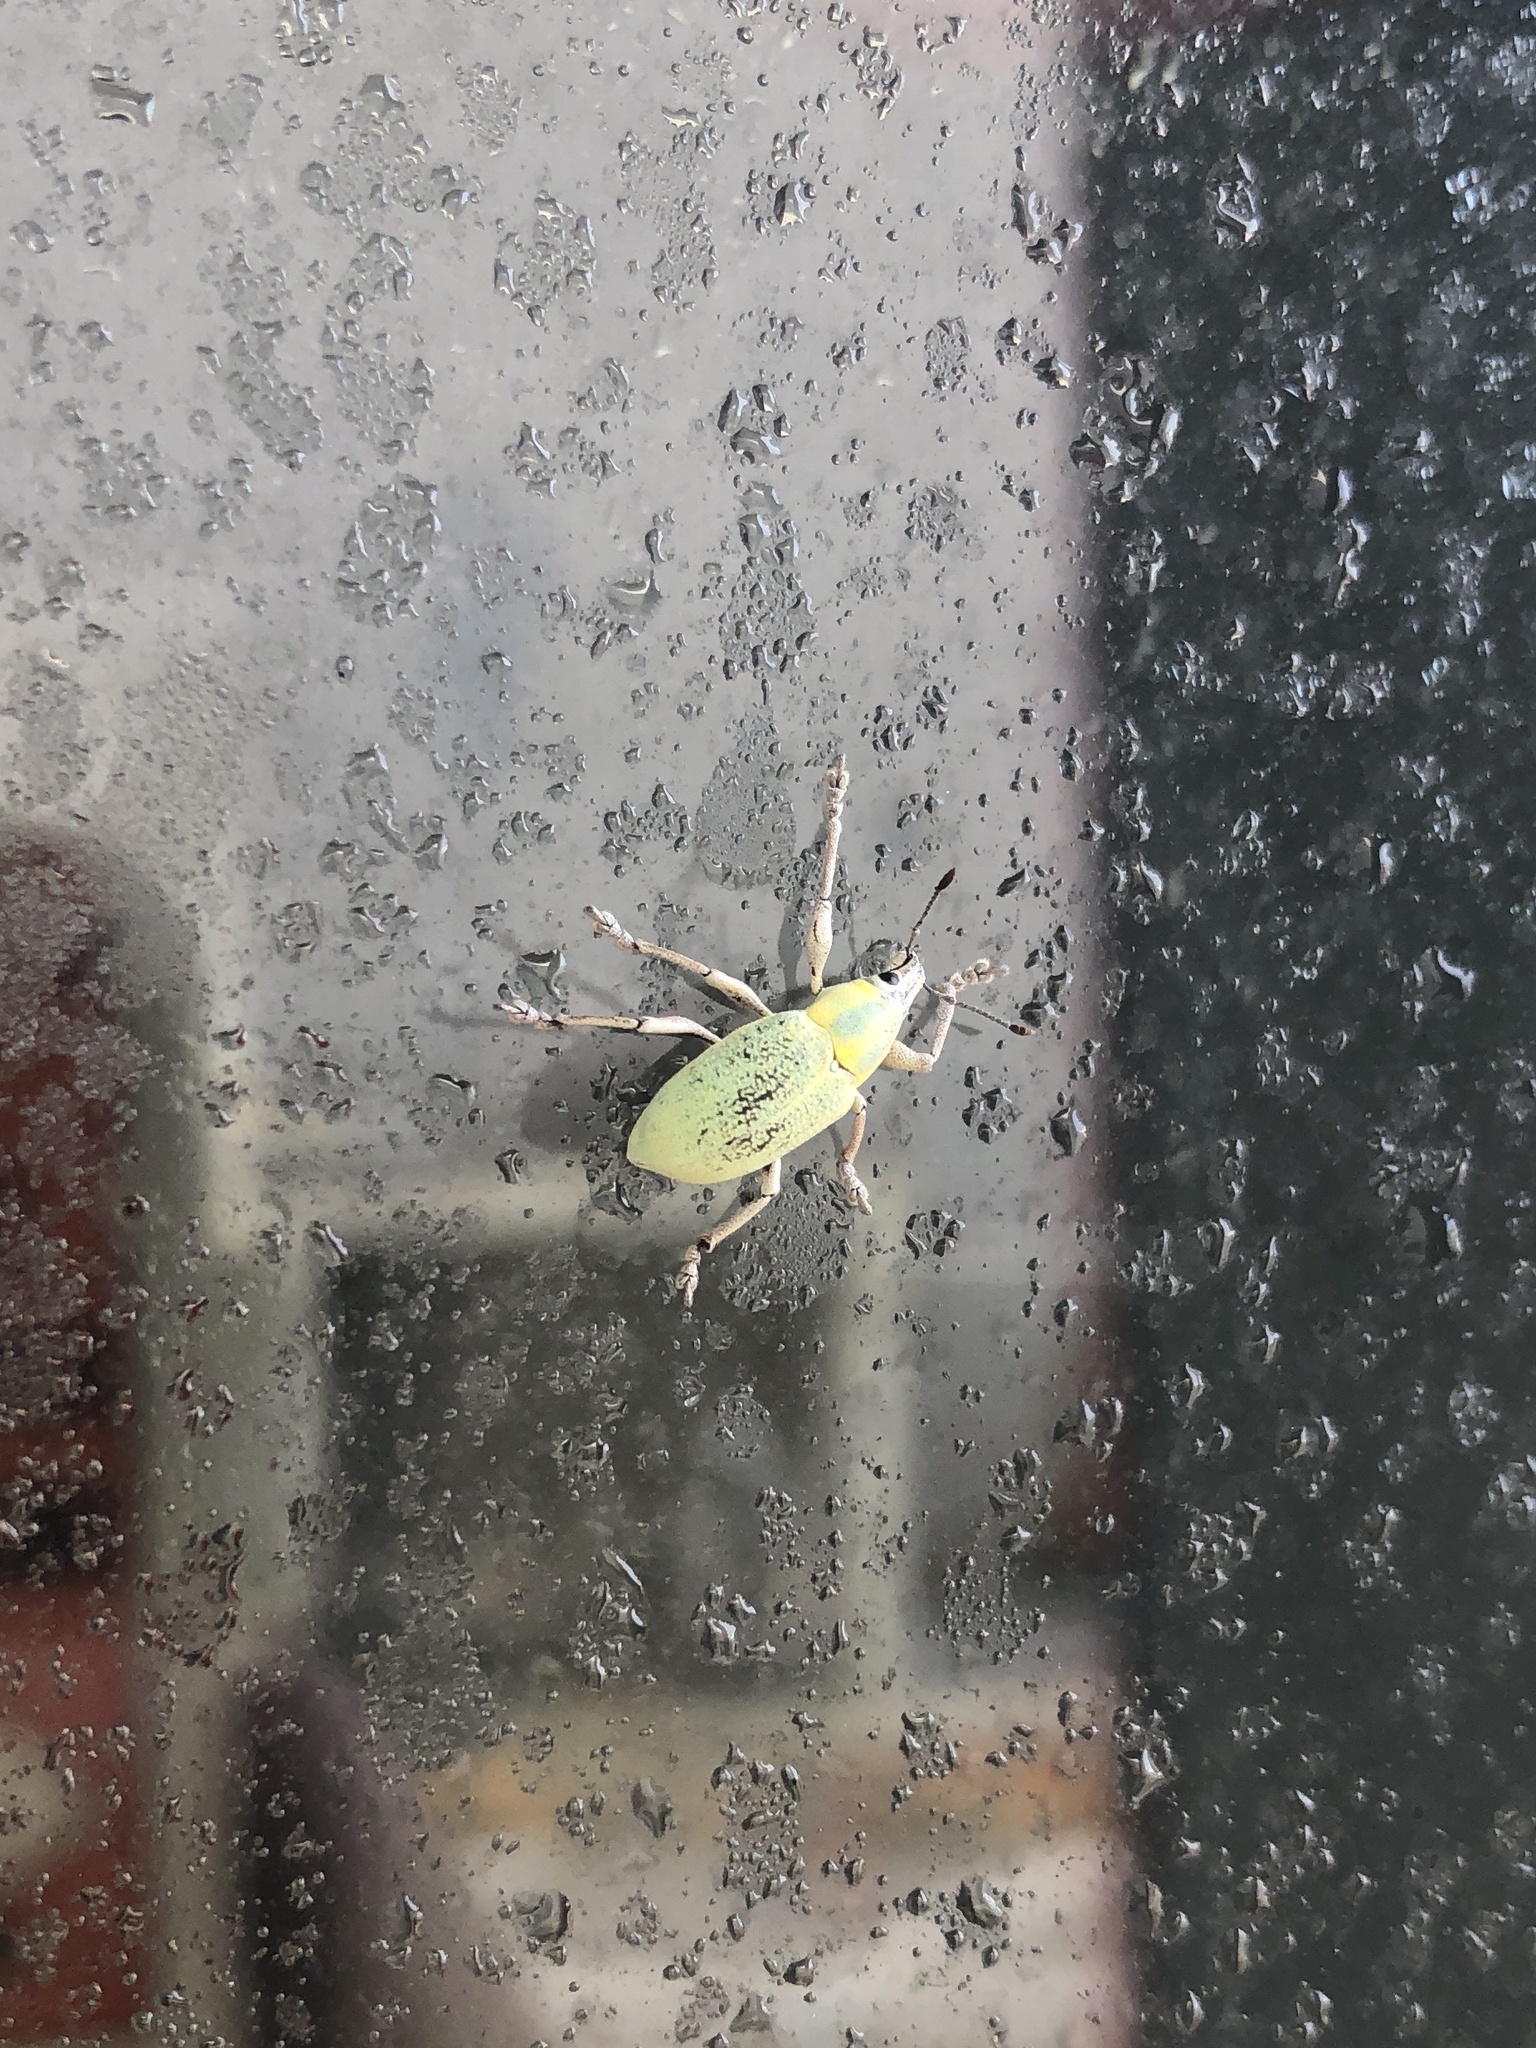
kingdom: Animalia
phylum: Arthropoda
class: Insecta
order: Coleoptera
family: Curculionidae
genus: Pachnaeus
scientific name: Pachnaeus litus
